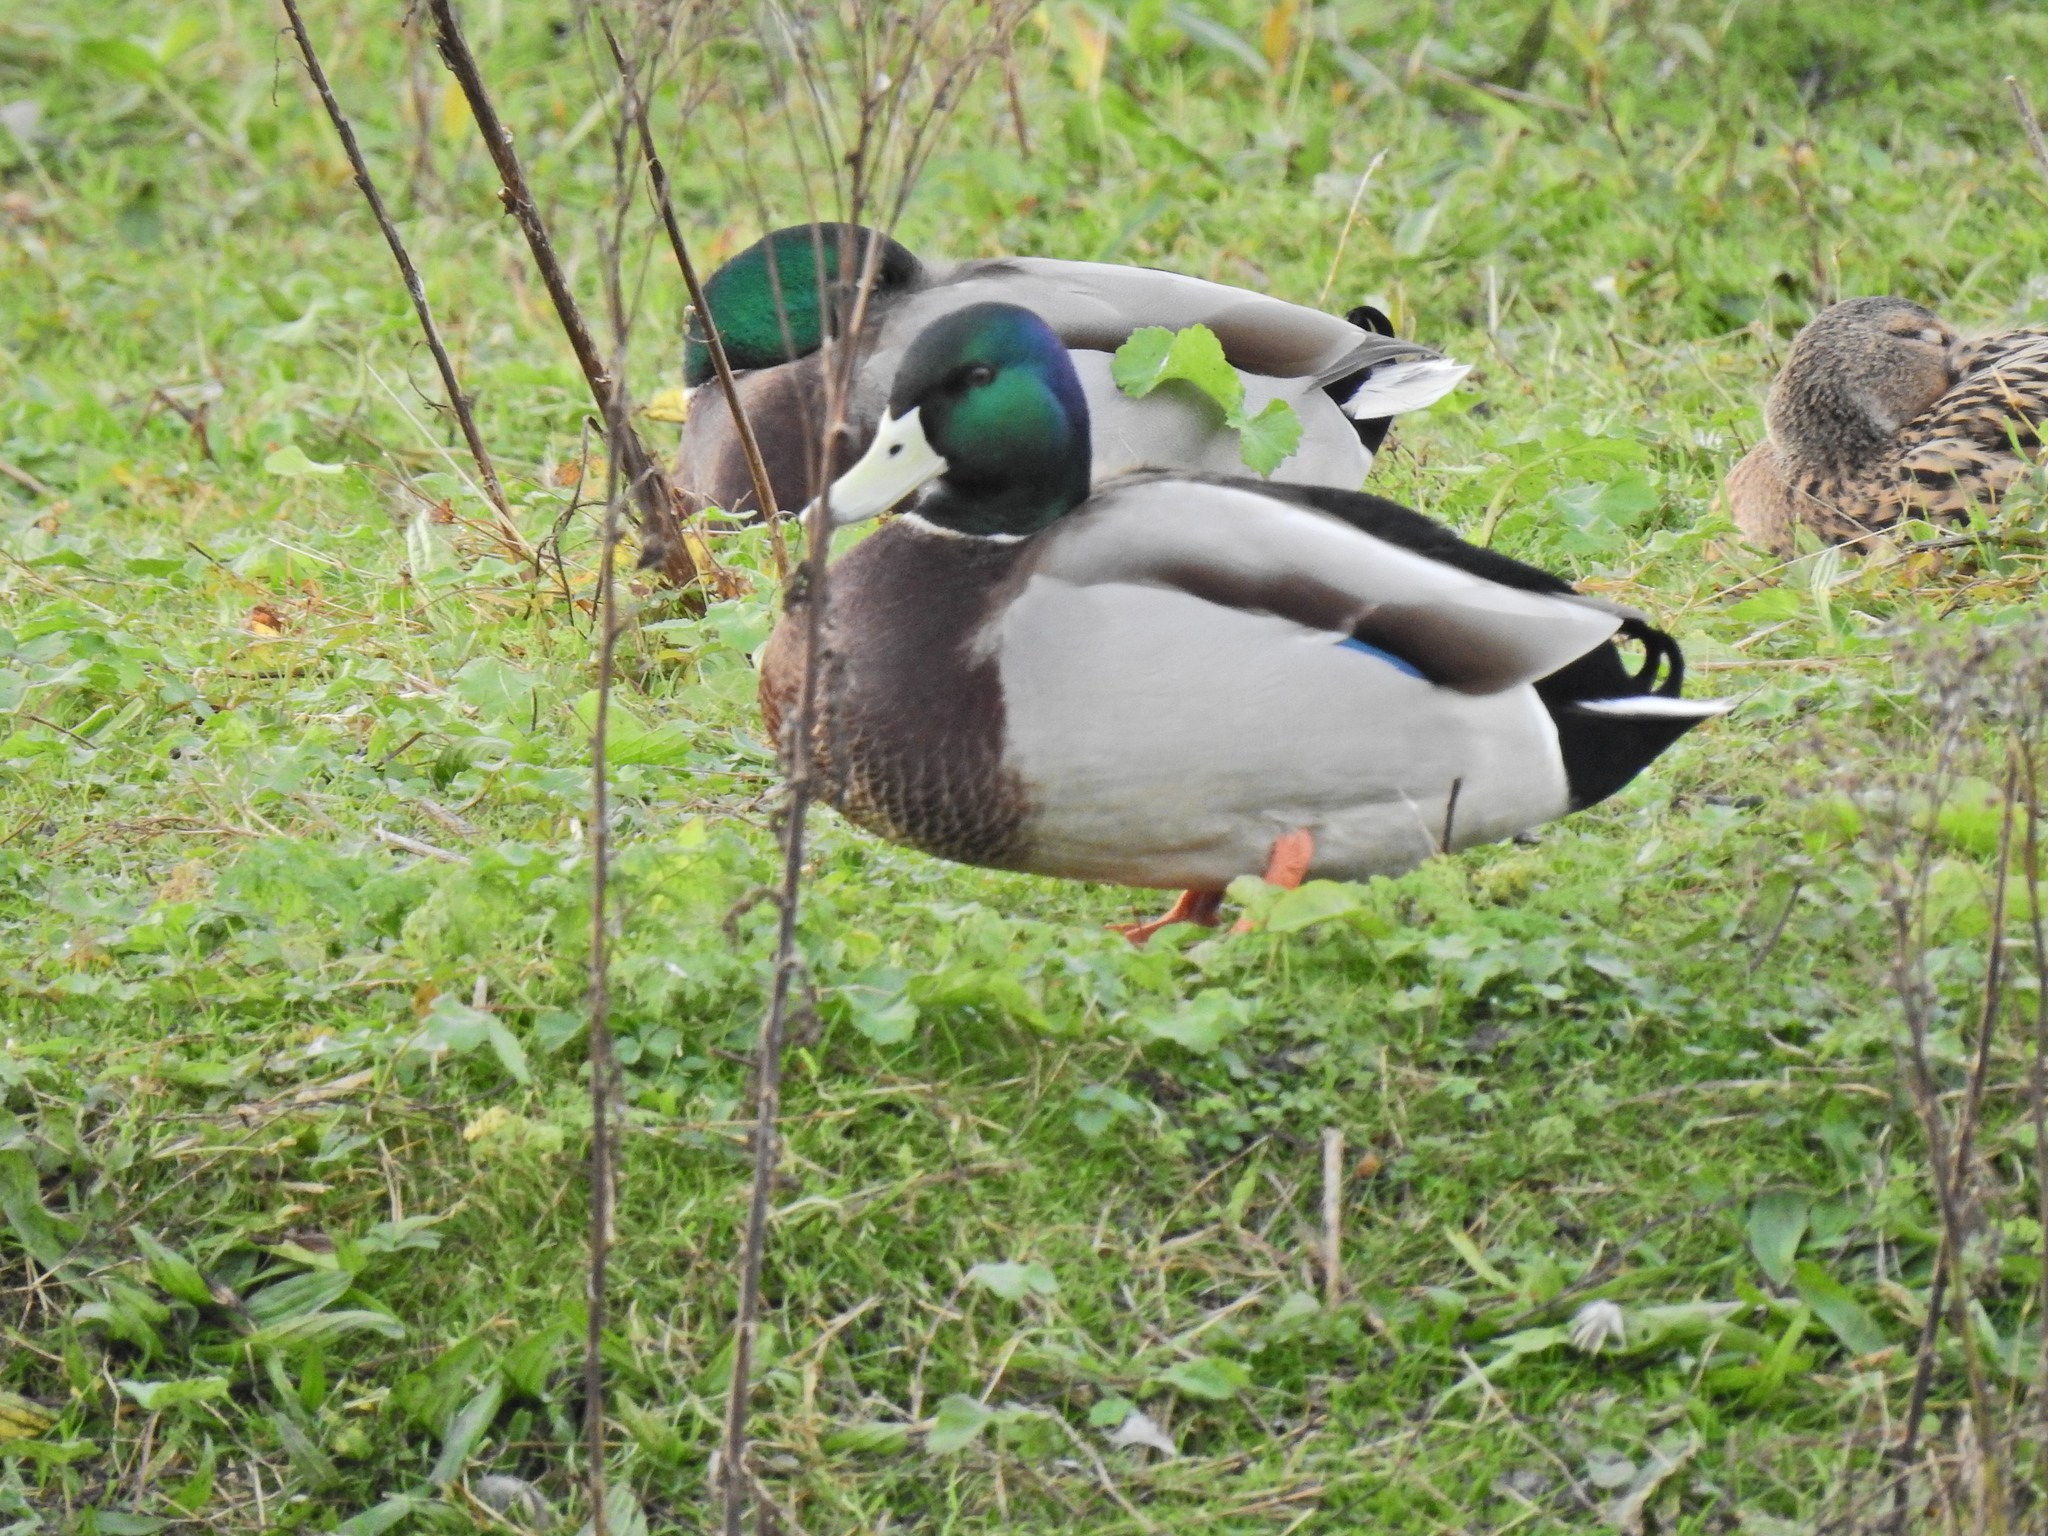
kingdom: Animalia
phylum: Chordata
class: Aves
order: Anseriformes
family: Anatidae
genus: Anas
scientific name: Anas platyrhynchos
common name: Mallard
